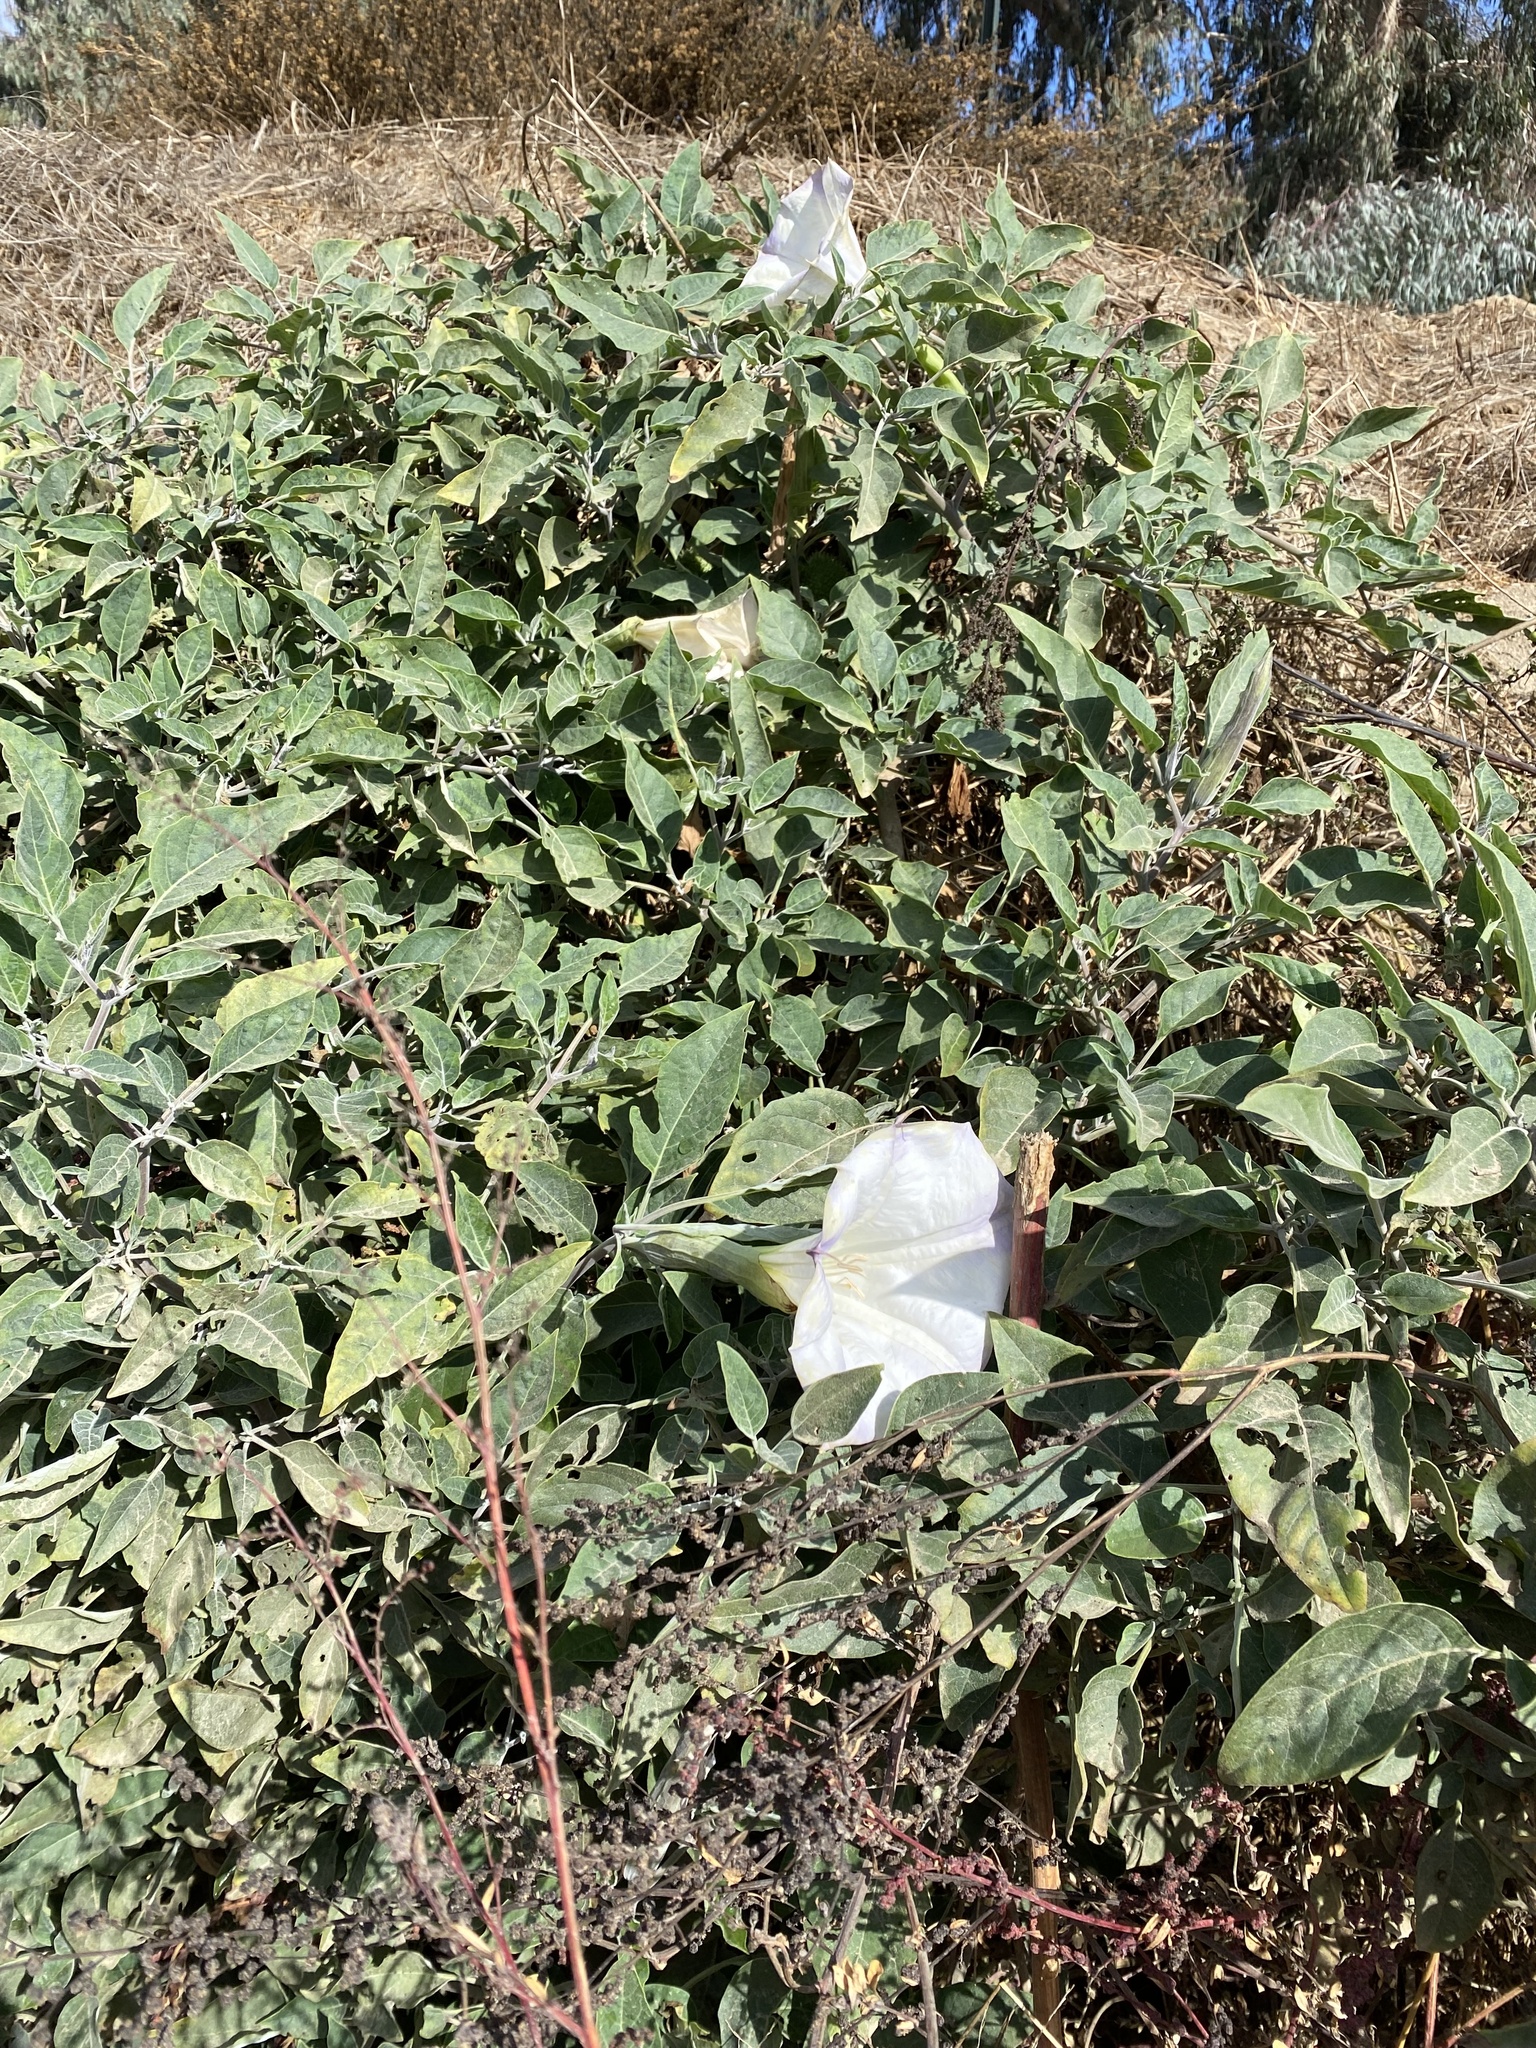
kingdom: Plantae
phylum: Tracheophyta
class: Magnoliopsida
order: Solanales
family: Solanaceae
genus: Datura
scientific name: Datura wrightii
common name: Sacred thorn-apple
